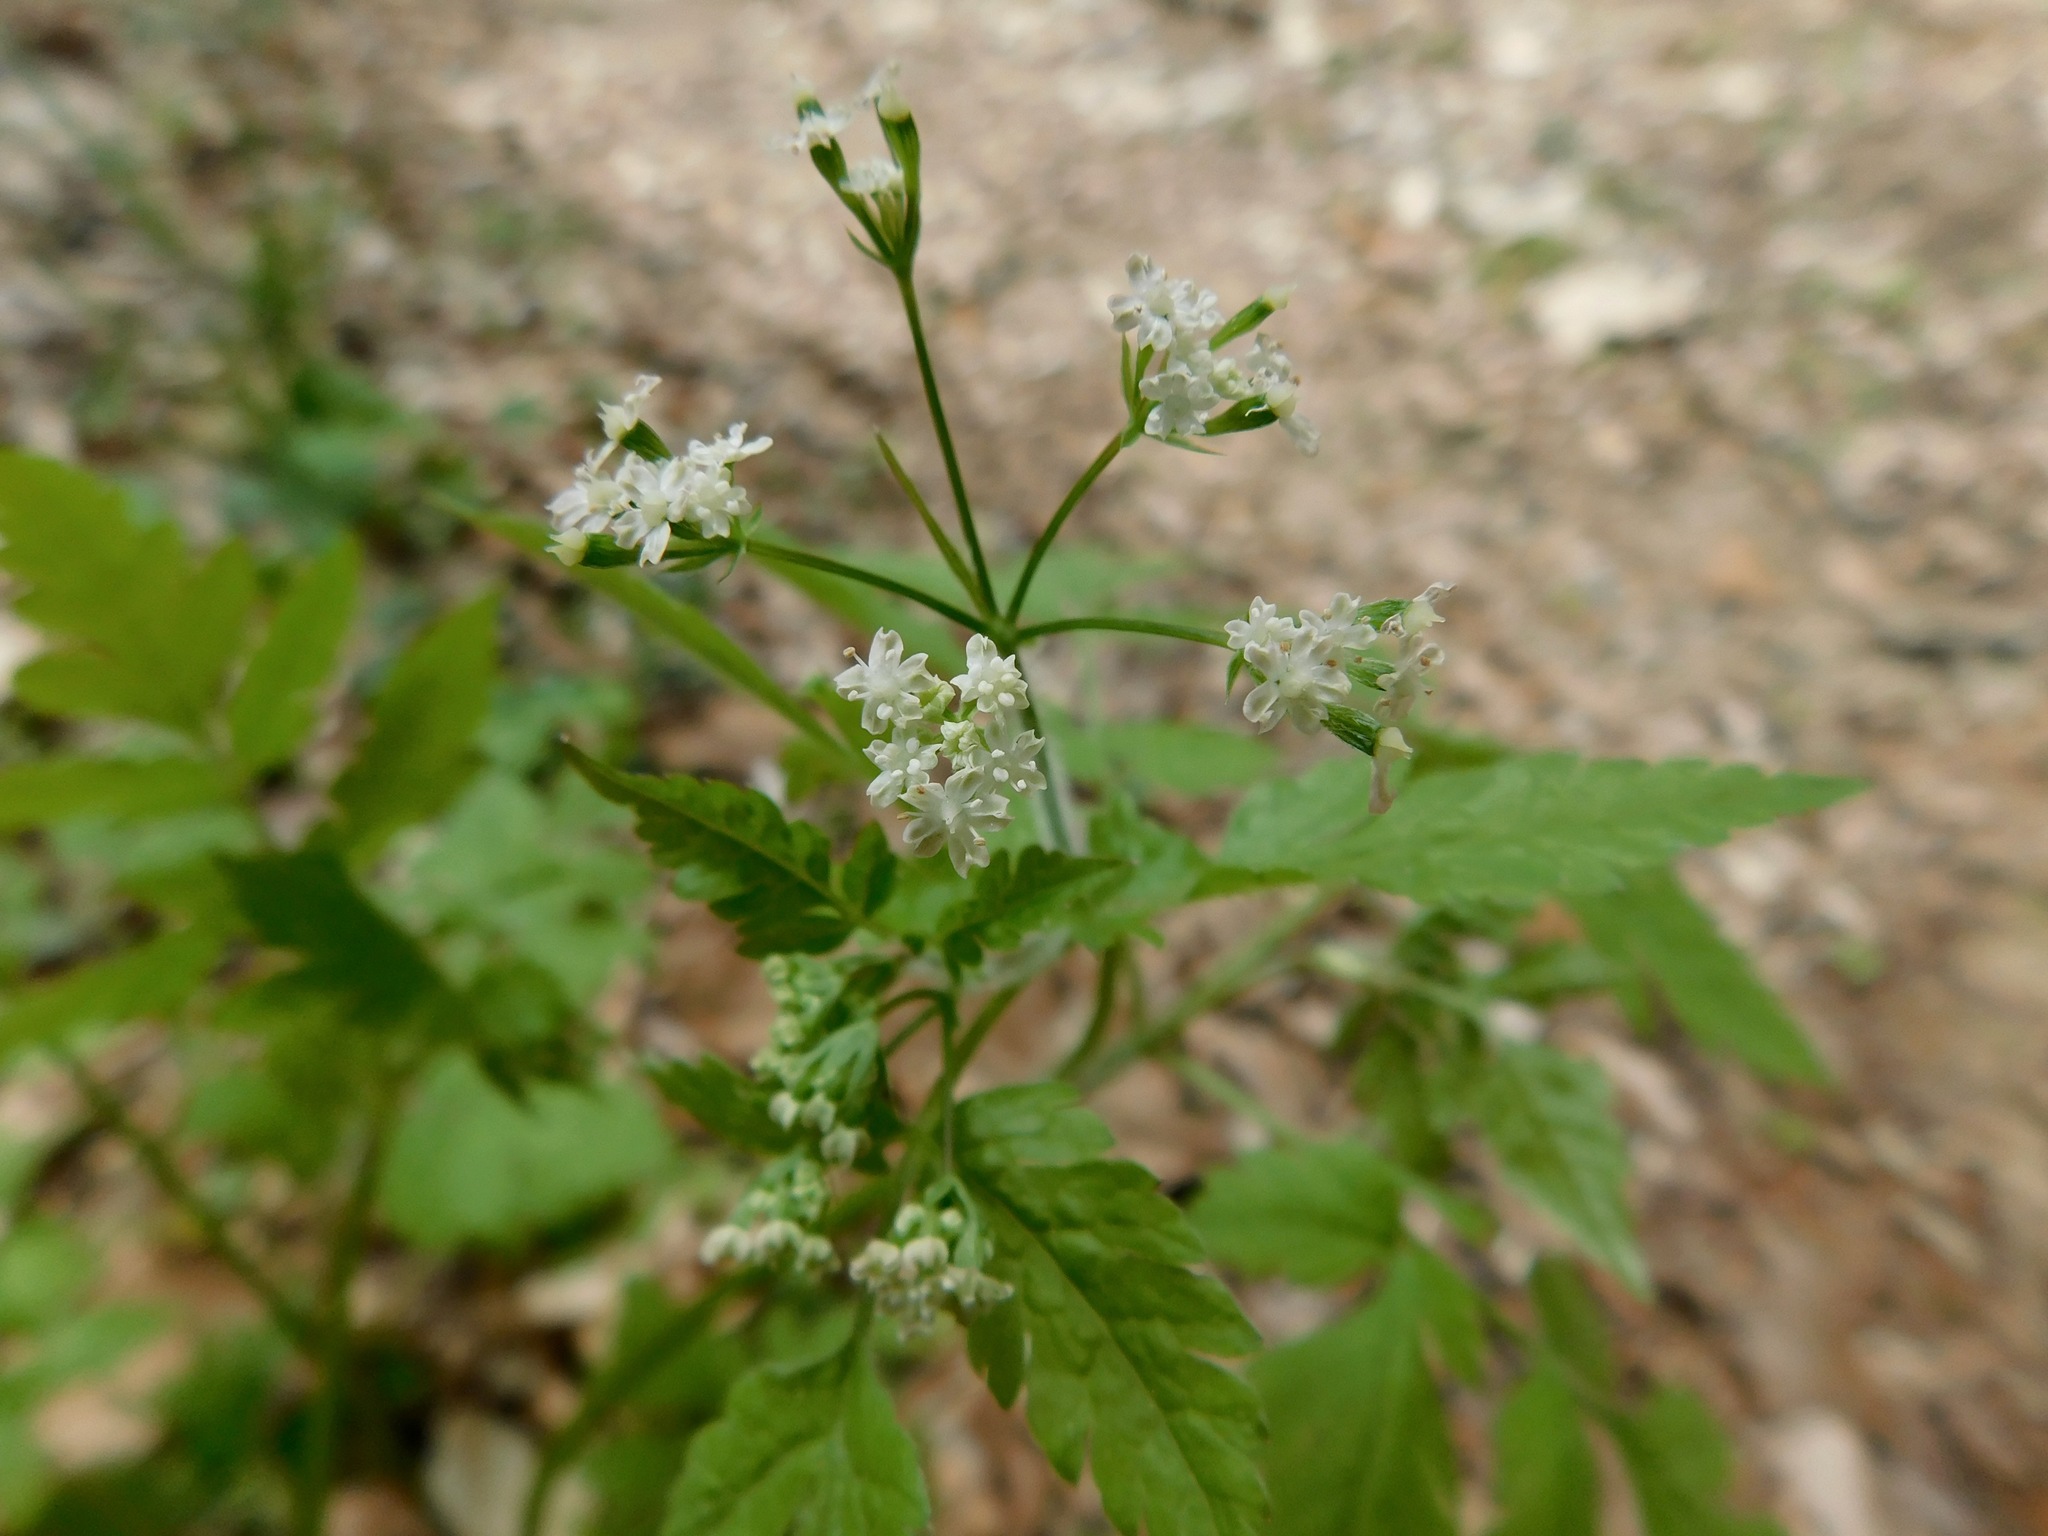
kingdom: Plantae
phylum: Tracheophyta
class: Magnoliopsida
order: Apiales
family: Apiaceae
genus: Osmorhiza
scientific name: Osmorhiza claytonii
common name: Hairy sweet cicely
